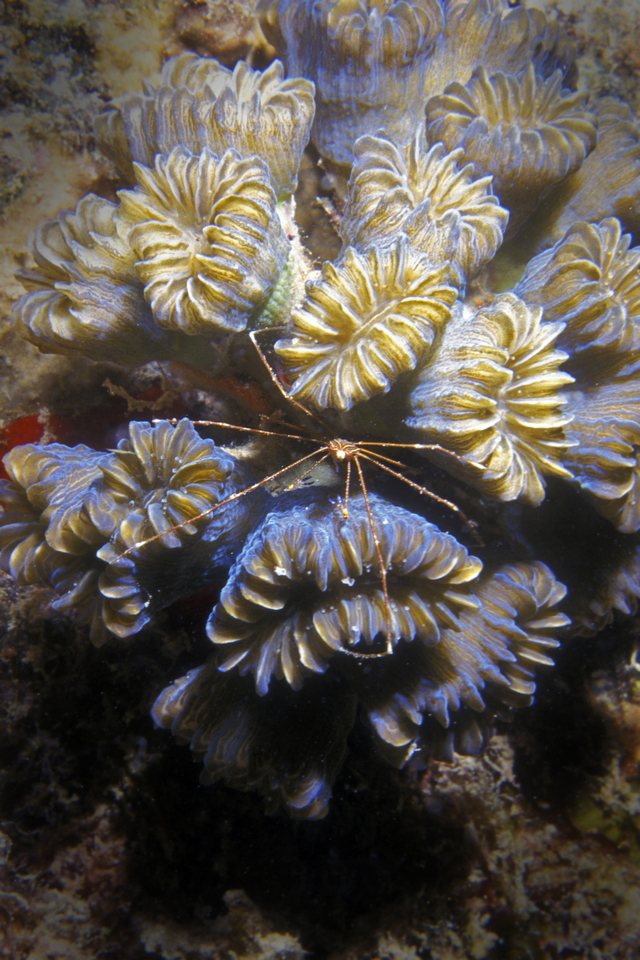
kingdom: Animalia
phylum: Arthropoda
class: Malacostraca
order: Decapoda
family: Inachoididae
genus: Stenorhynchus
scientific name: Stenorhynchus seticornis
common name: Arrow crab
